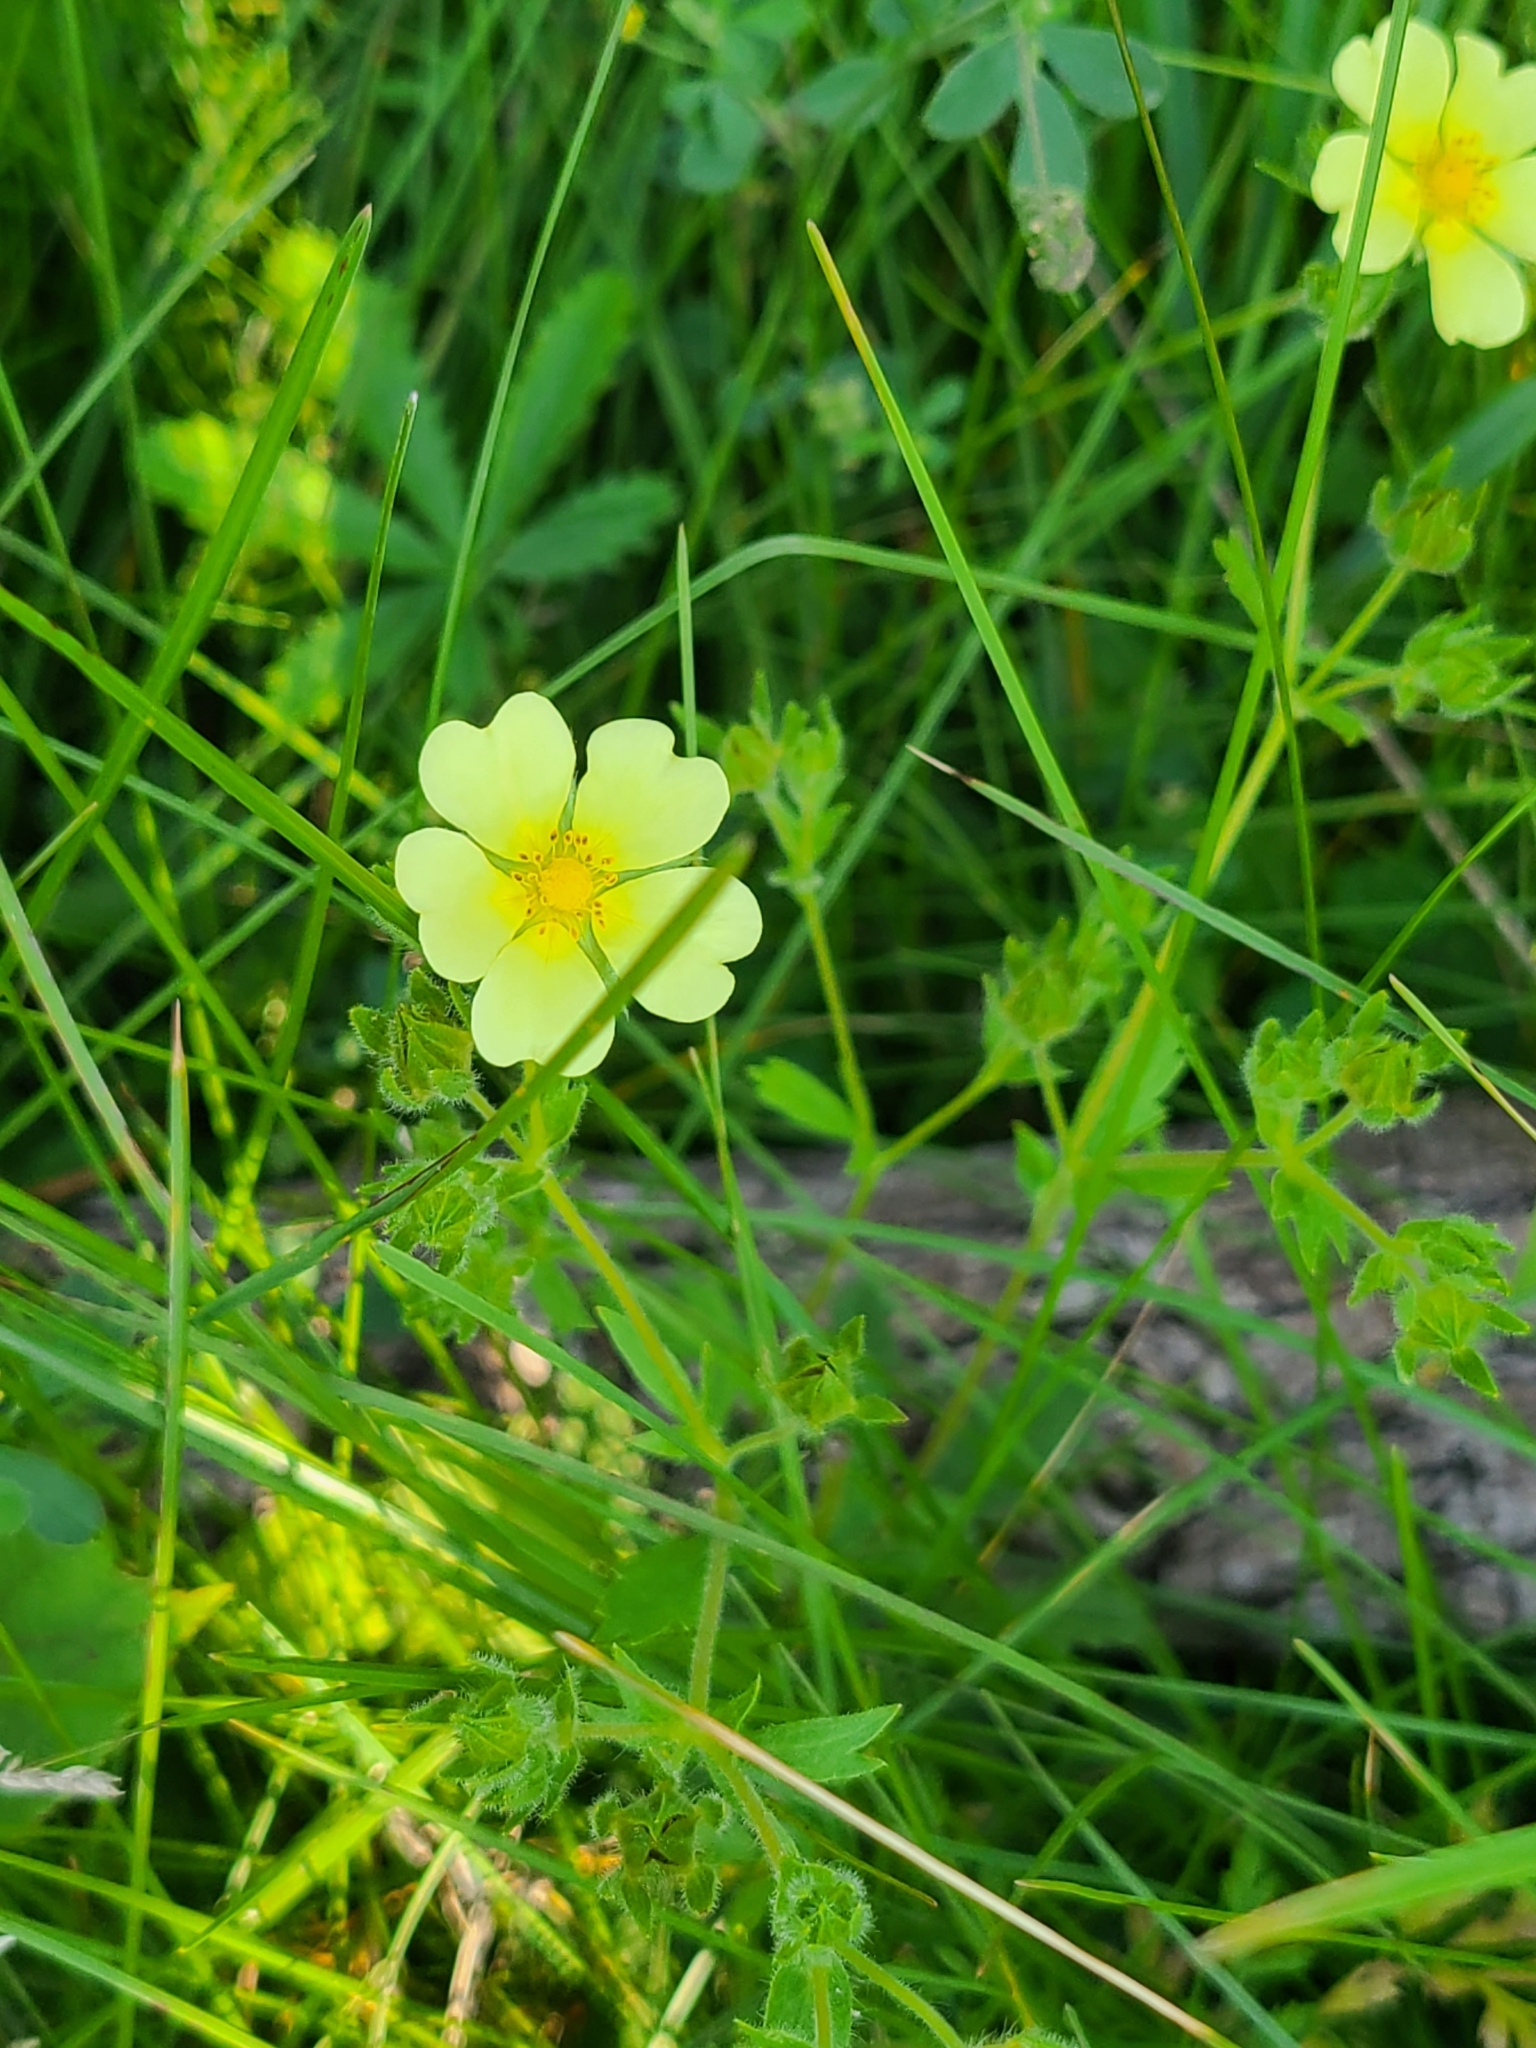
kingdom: Plantae
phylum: Tracheophyta
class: Magnoliopsida
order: Rosales
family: Rosaceae
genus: Potentilla
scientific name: Potentilla recta
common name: Sulphur cinquefoil
